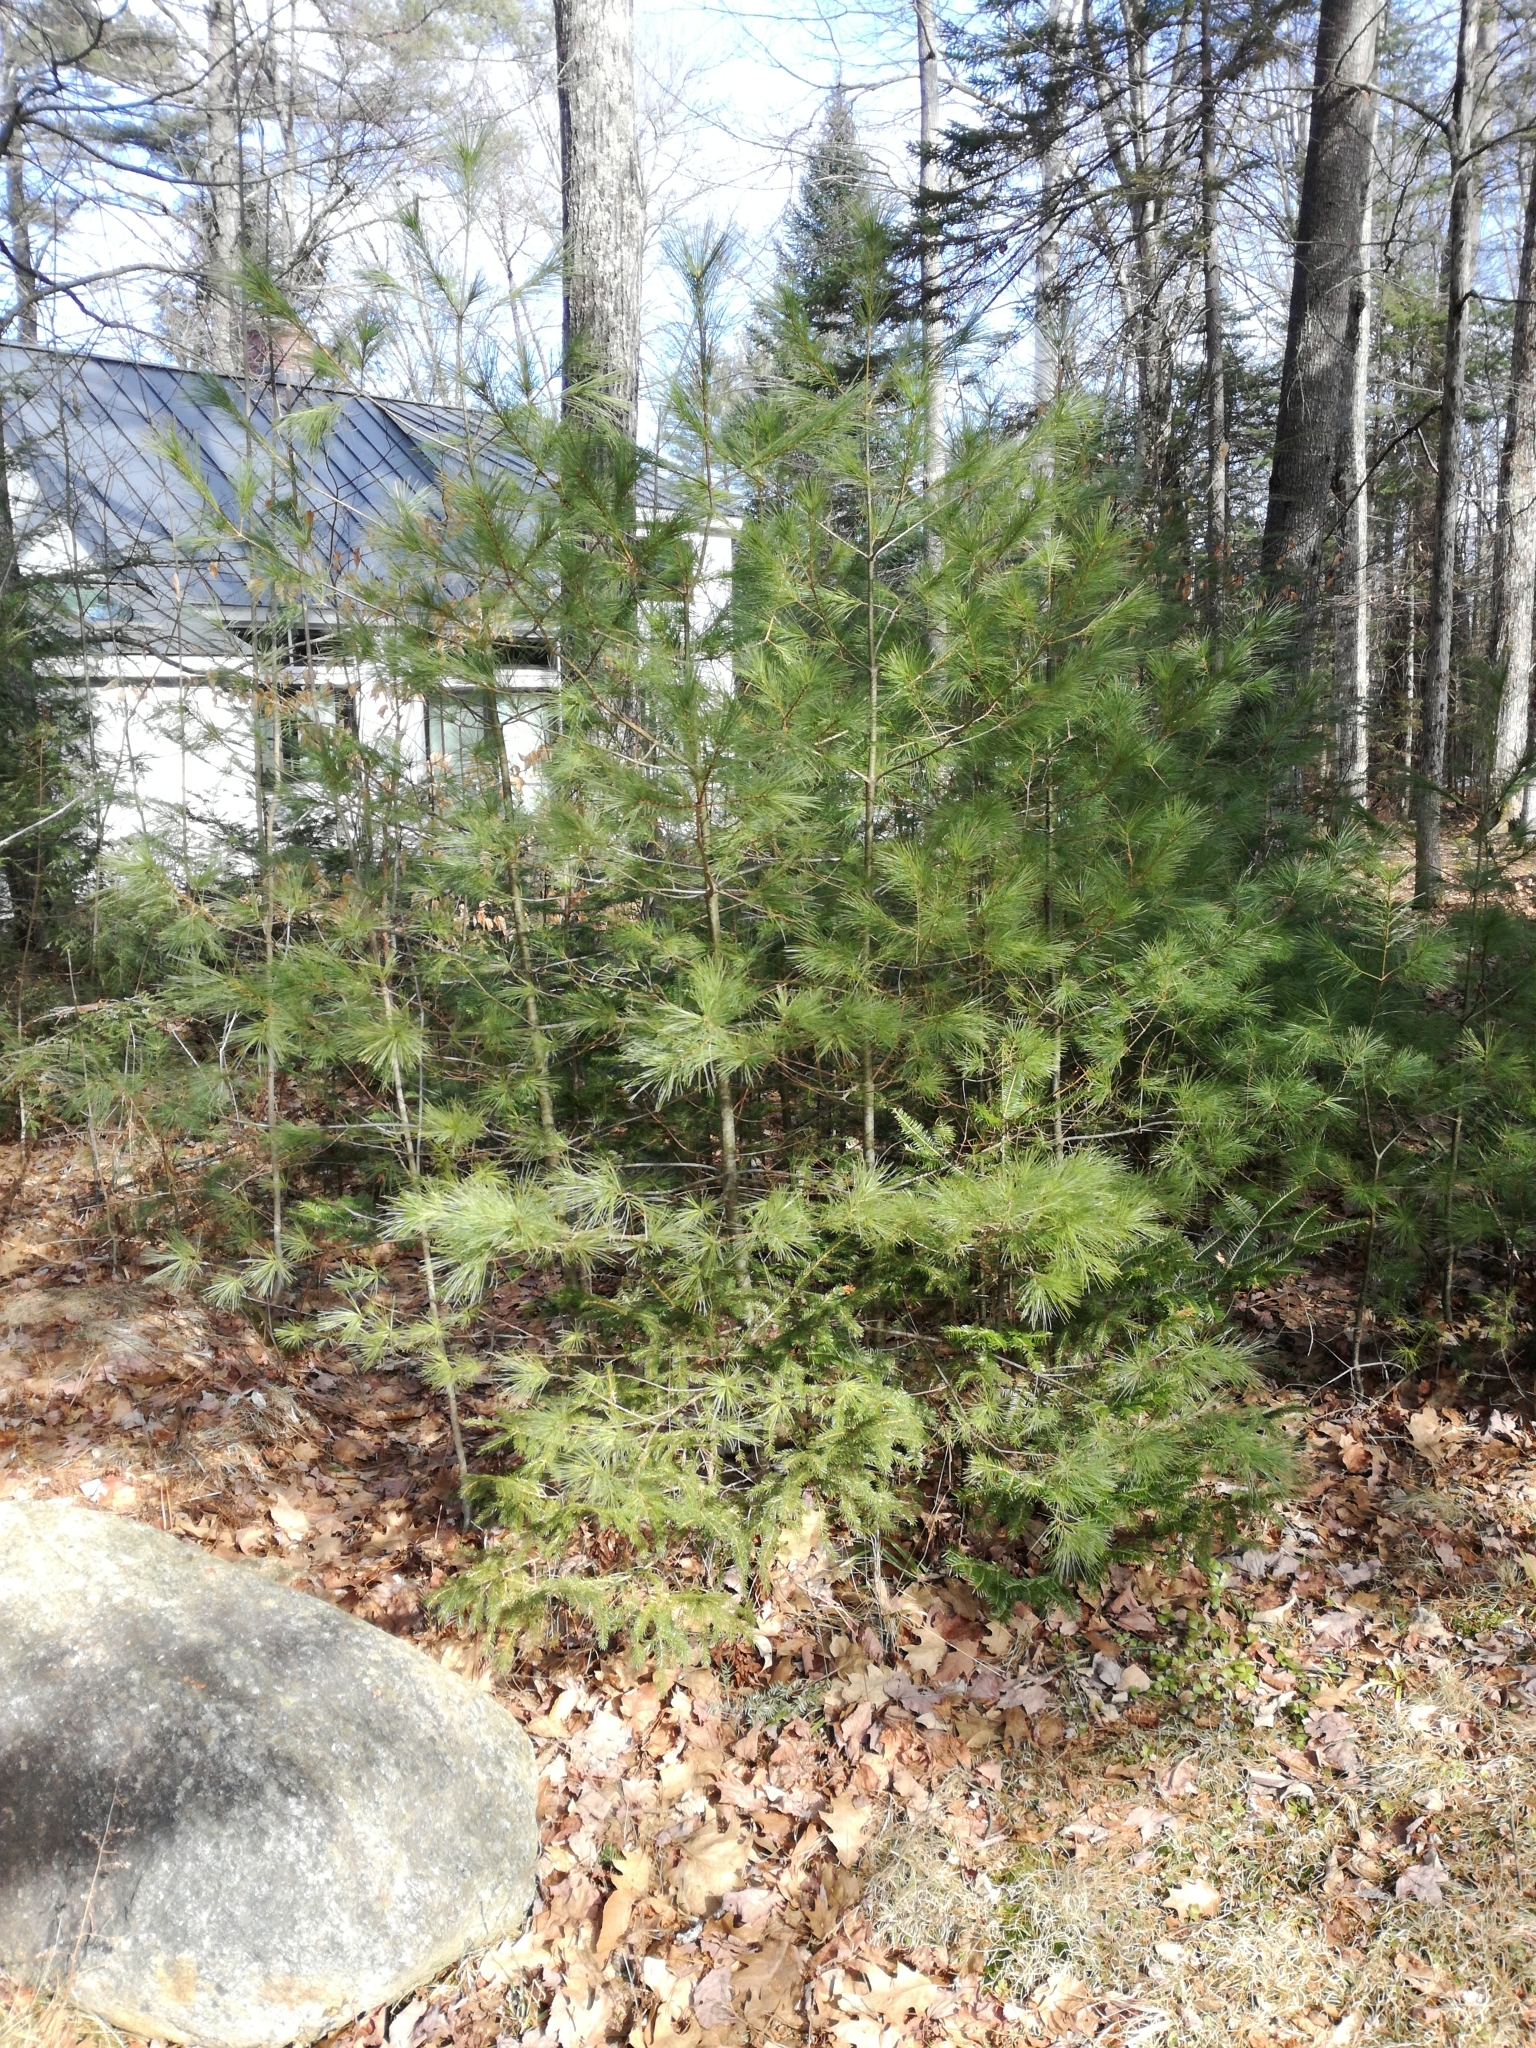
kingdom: Plantae
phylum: Tracheophyta
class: Pinopsida
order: Pinales
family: Pinaceae
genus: Pinus
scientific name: Pinus strobus
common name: Weymouth pine
